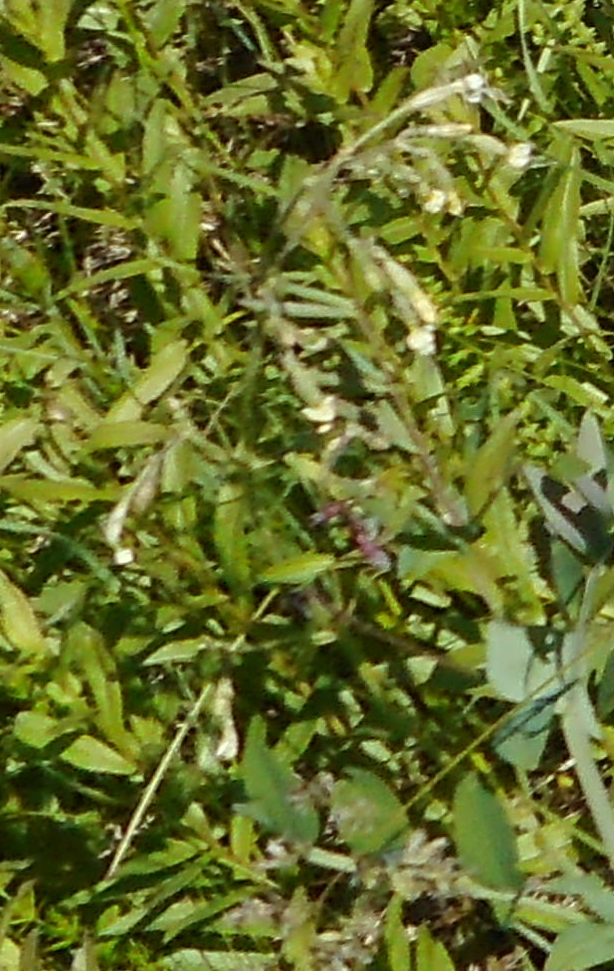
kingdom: Plantae
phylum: Tracheophyta
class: Magnoliopsida
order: Caryophyllales
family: Caryophyllaceae
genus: Silene
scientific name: Silene nutans
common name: Nottingham catchfly
